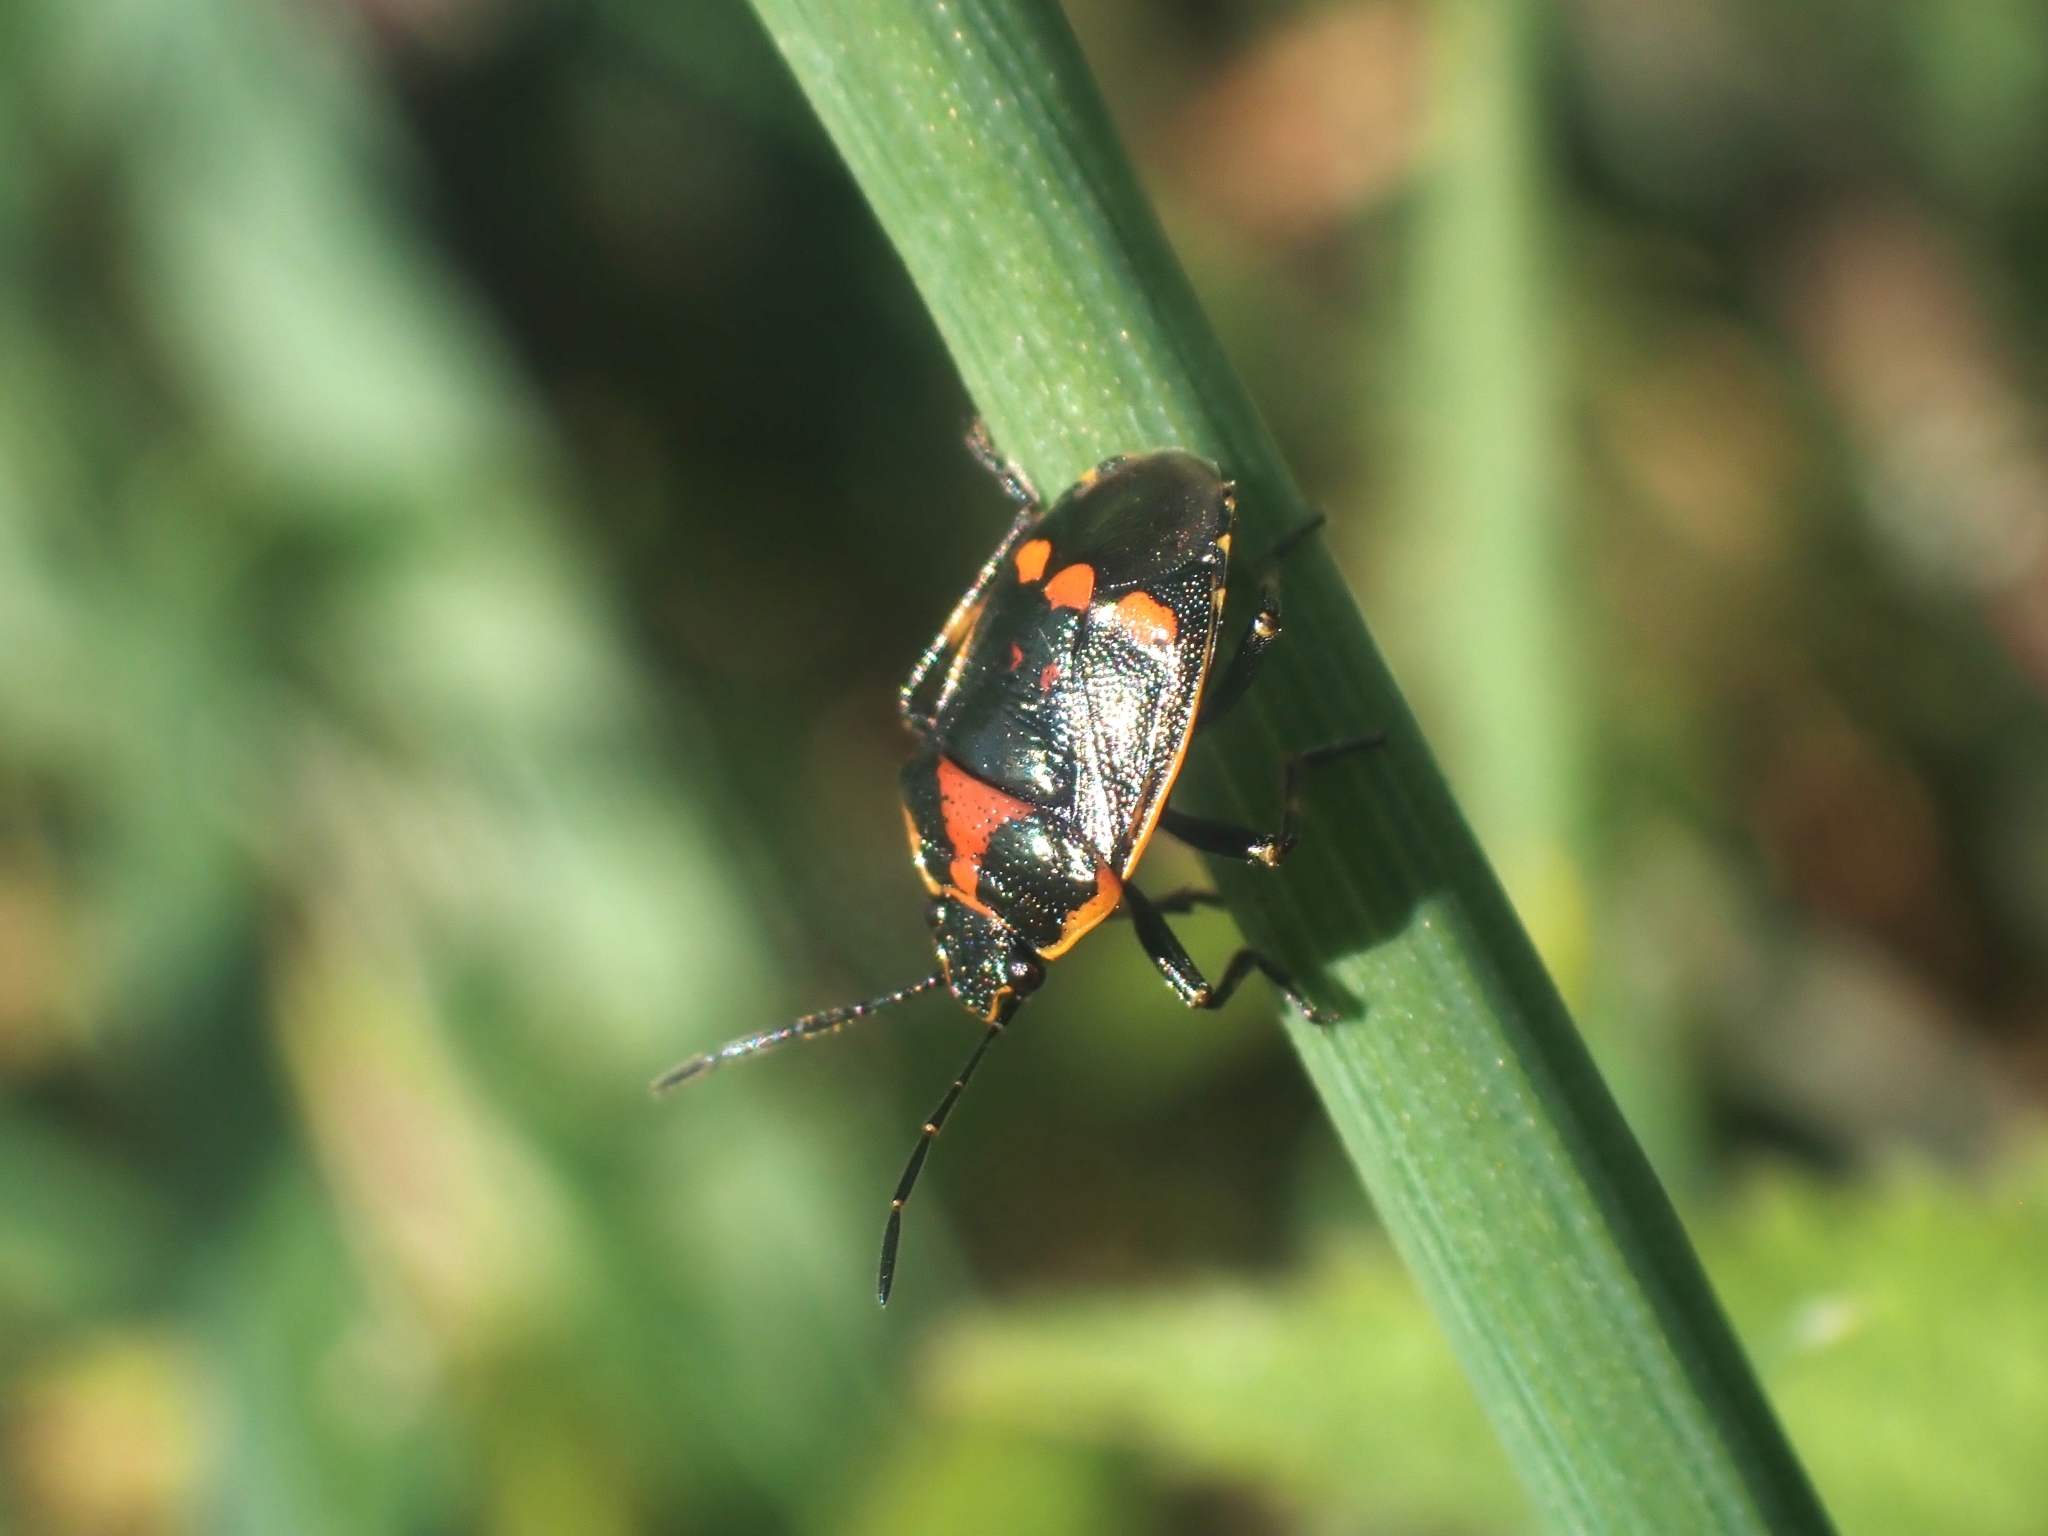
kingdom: Animalia
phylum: Arthropoda
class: Insecta
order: Hemiptera
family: Pentatomidae
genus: Eurydema
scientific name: Eurydema oleracea
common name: Cabbage bug
